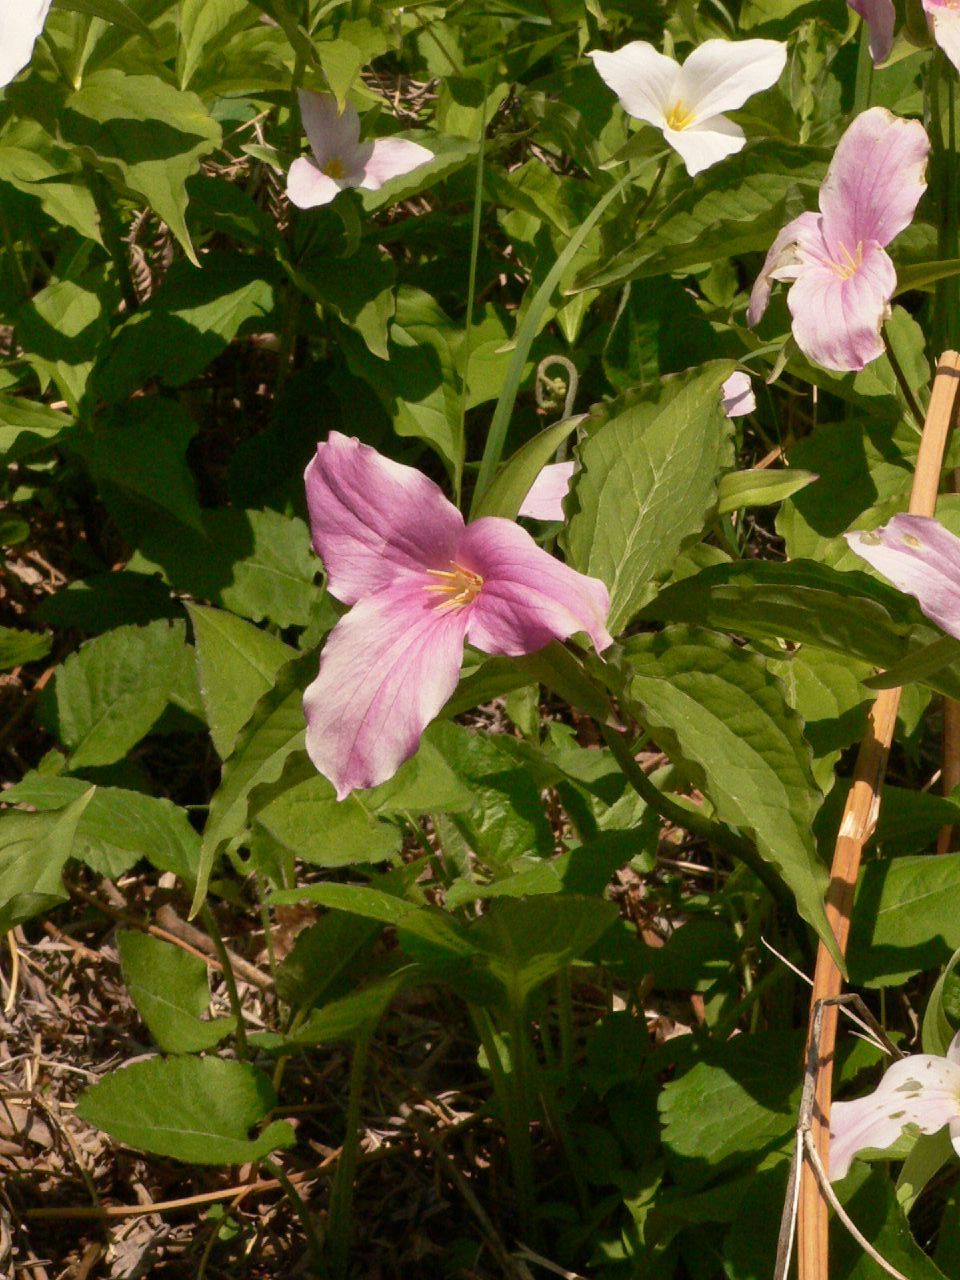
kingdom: Plantae
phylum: Tracheophyta
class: Liliopsida
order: Liliales
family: Melanthiaceae
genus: Trillium
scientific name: Trillium grandiflorum
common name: Great white trillium
